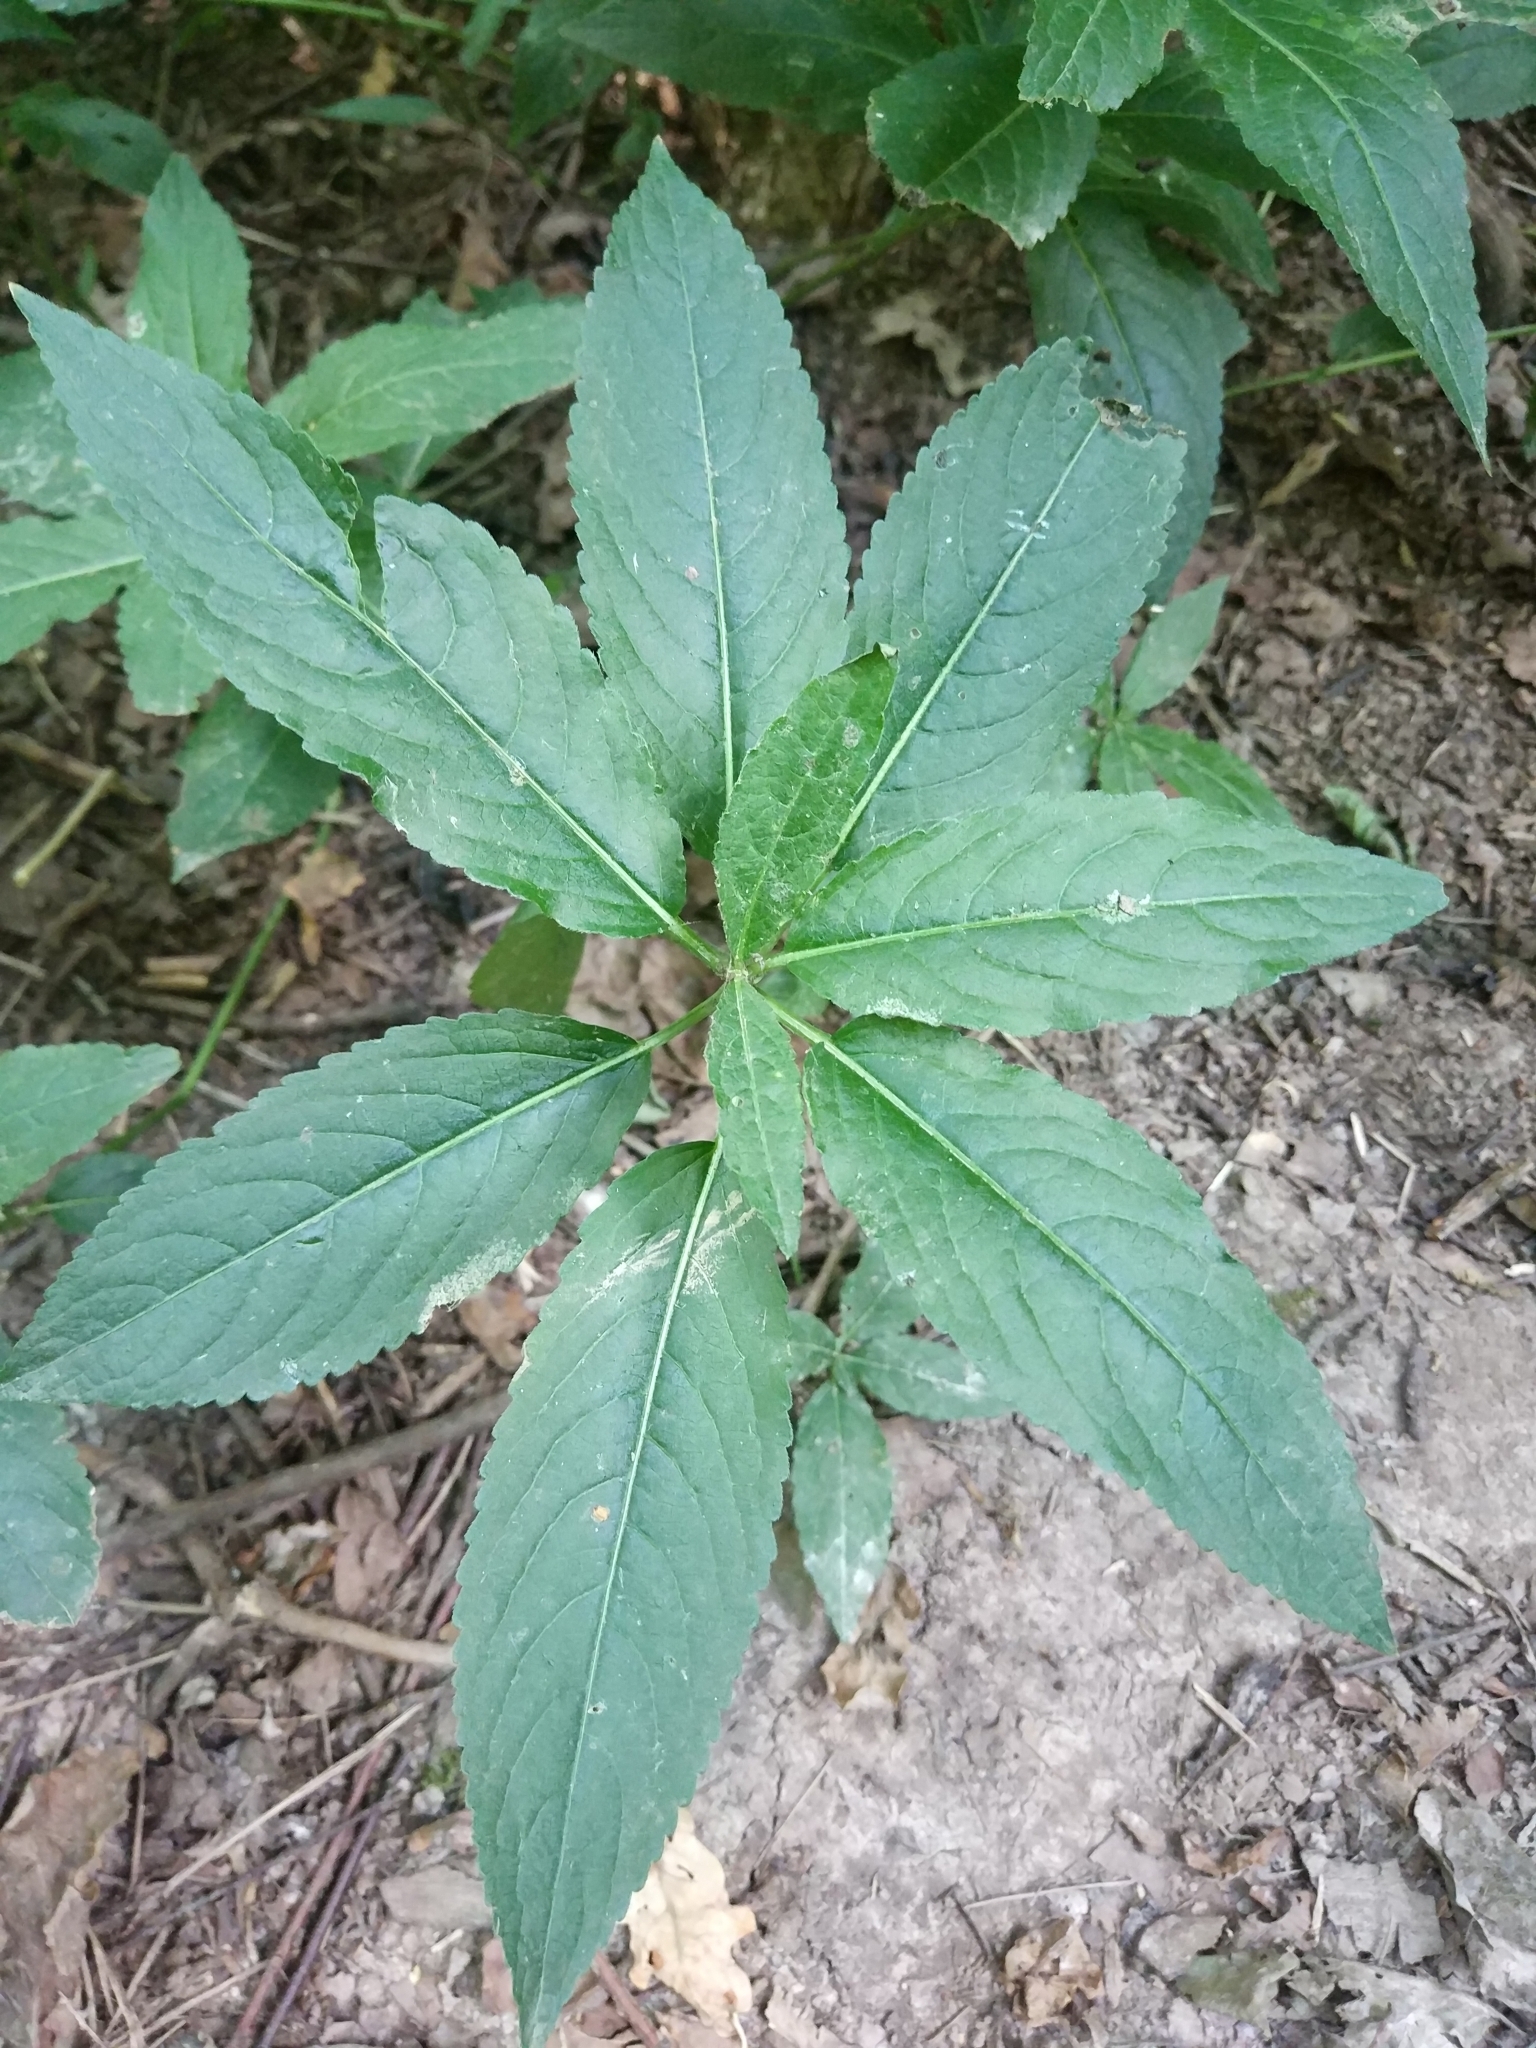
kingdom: Plantae
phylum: Tracheophyta
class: Magnoliopsida
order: Malpighiales
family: Euphorbiaceae
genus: Mercurialis
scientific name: Mercurialis perennis
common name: Dog mercury
